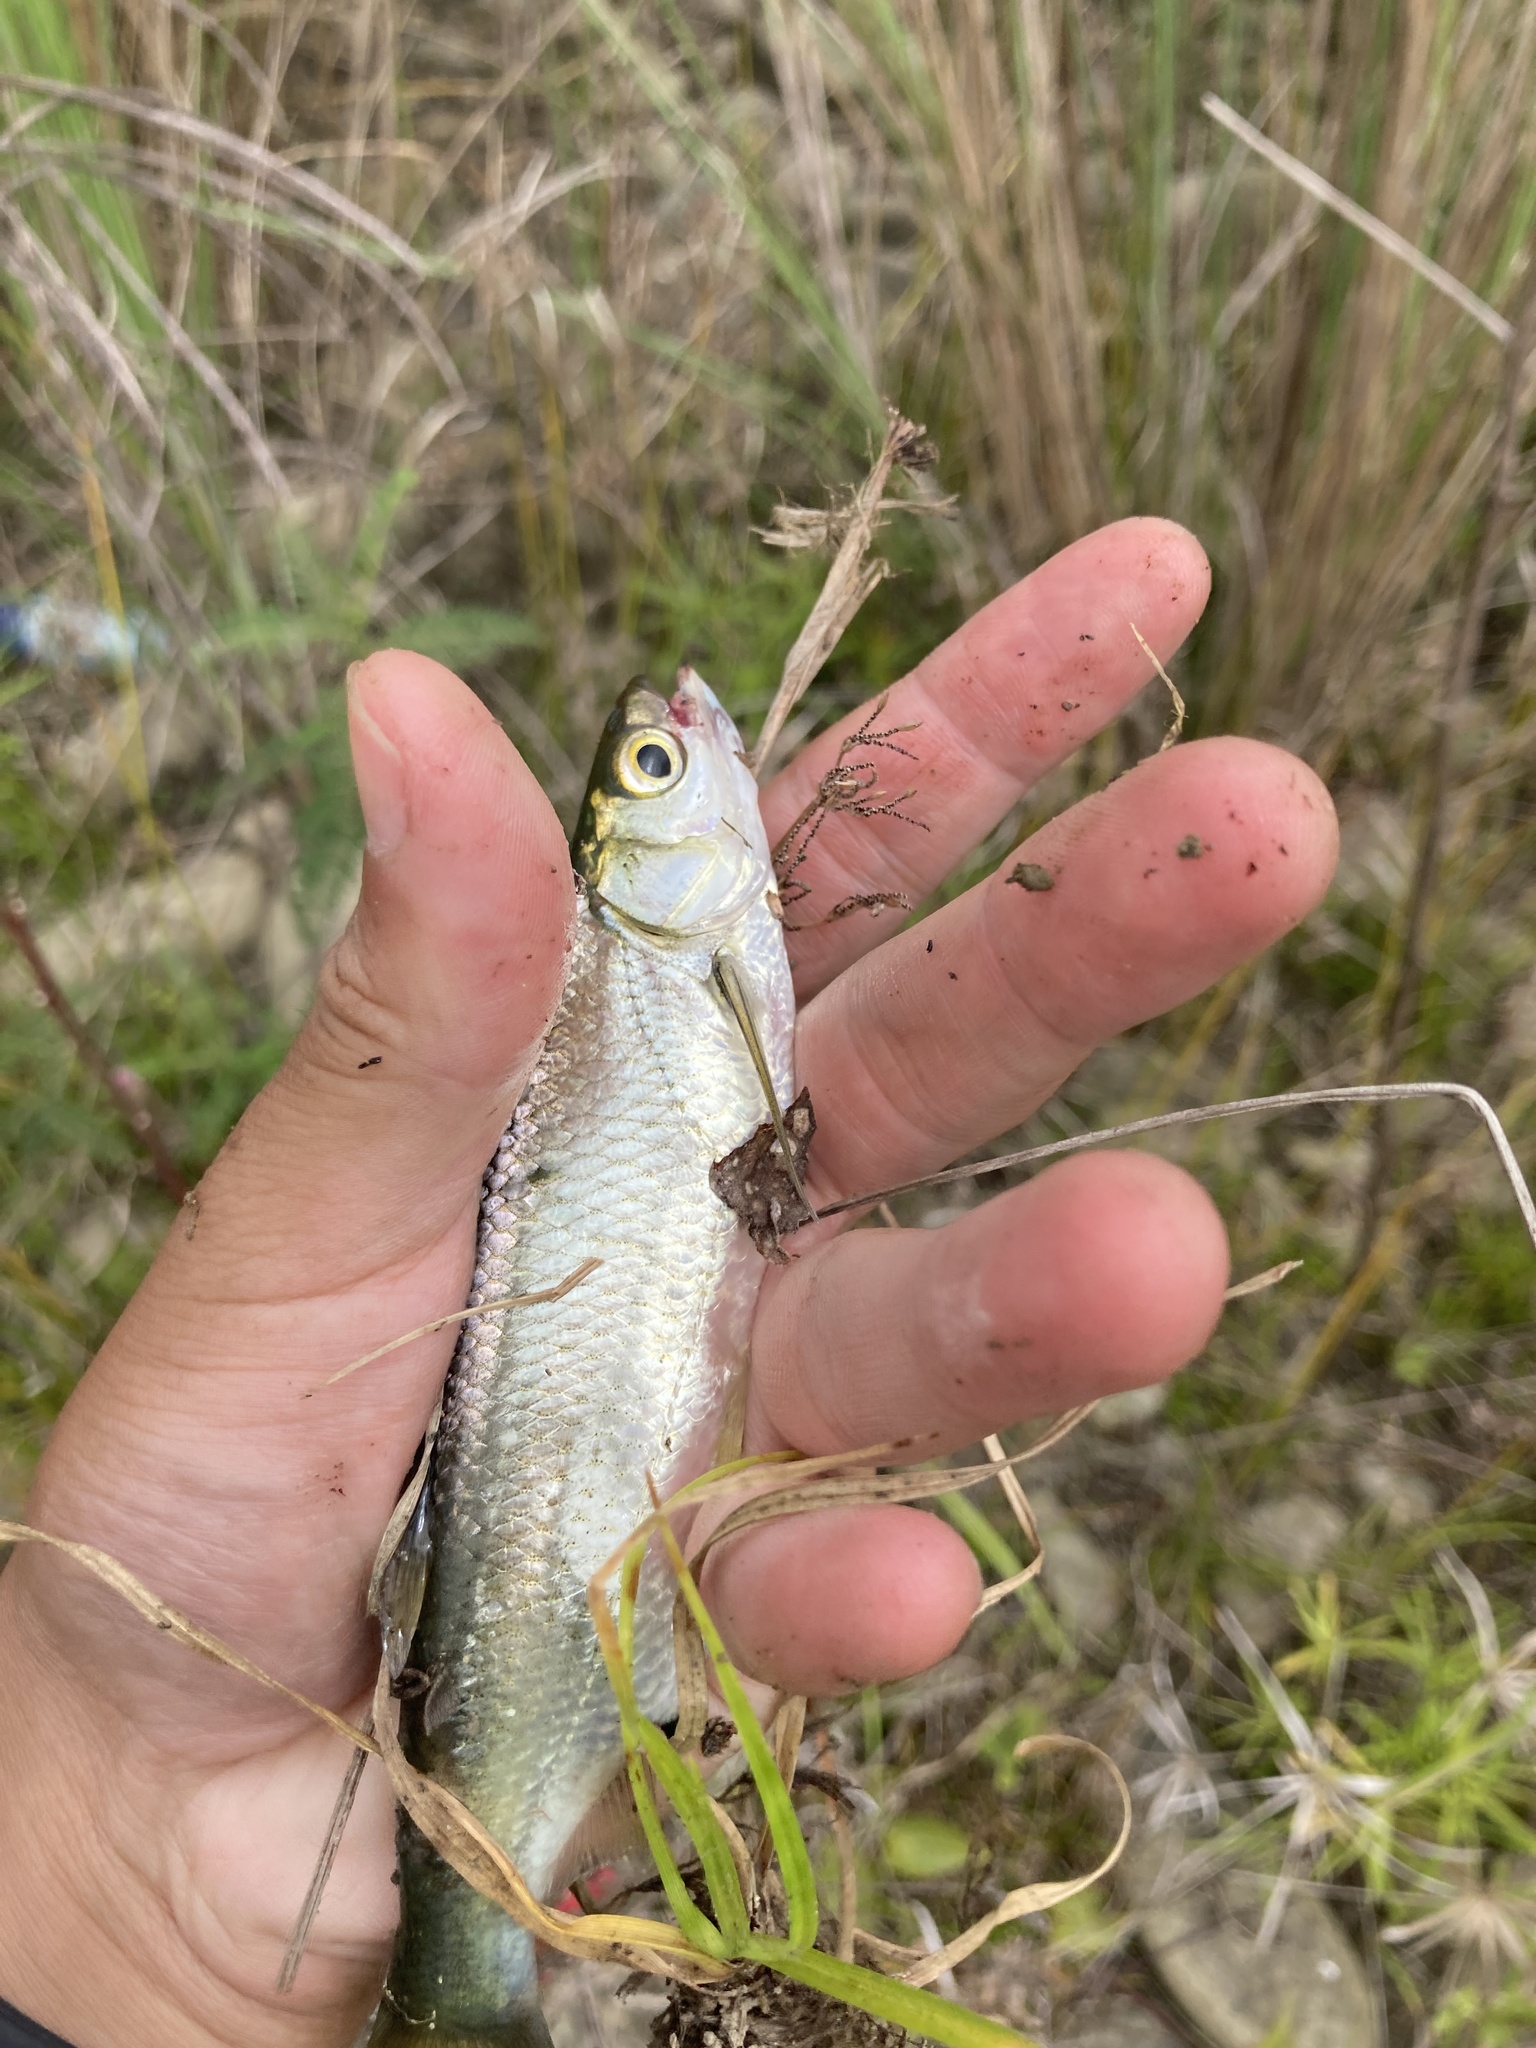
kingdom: Animalia
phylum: Chordata
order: Cypriniformes
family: Cyprinidae
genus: Hemiculter
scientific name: Hemiculter leucisculus
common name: Common sawbelly
